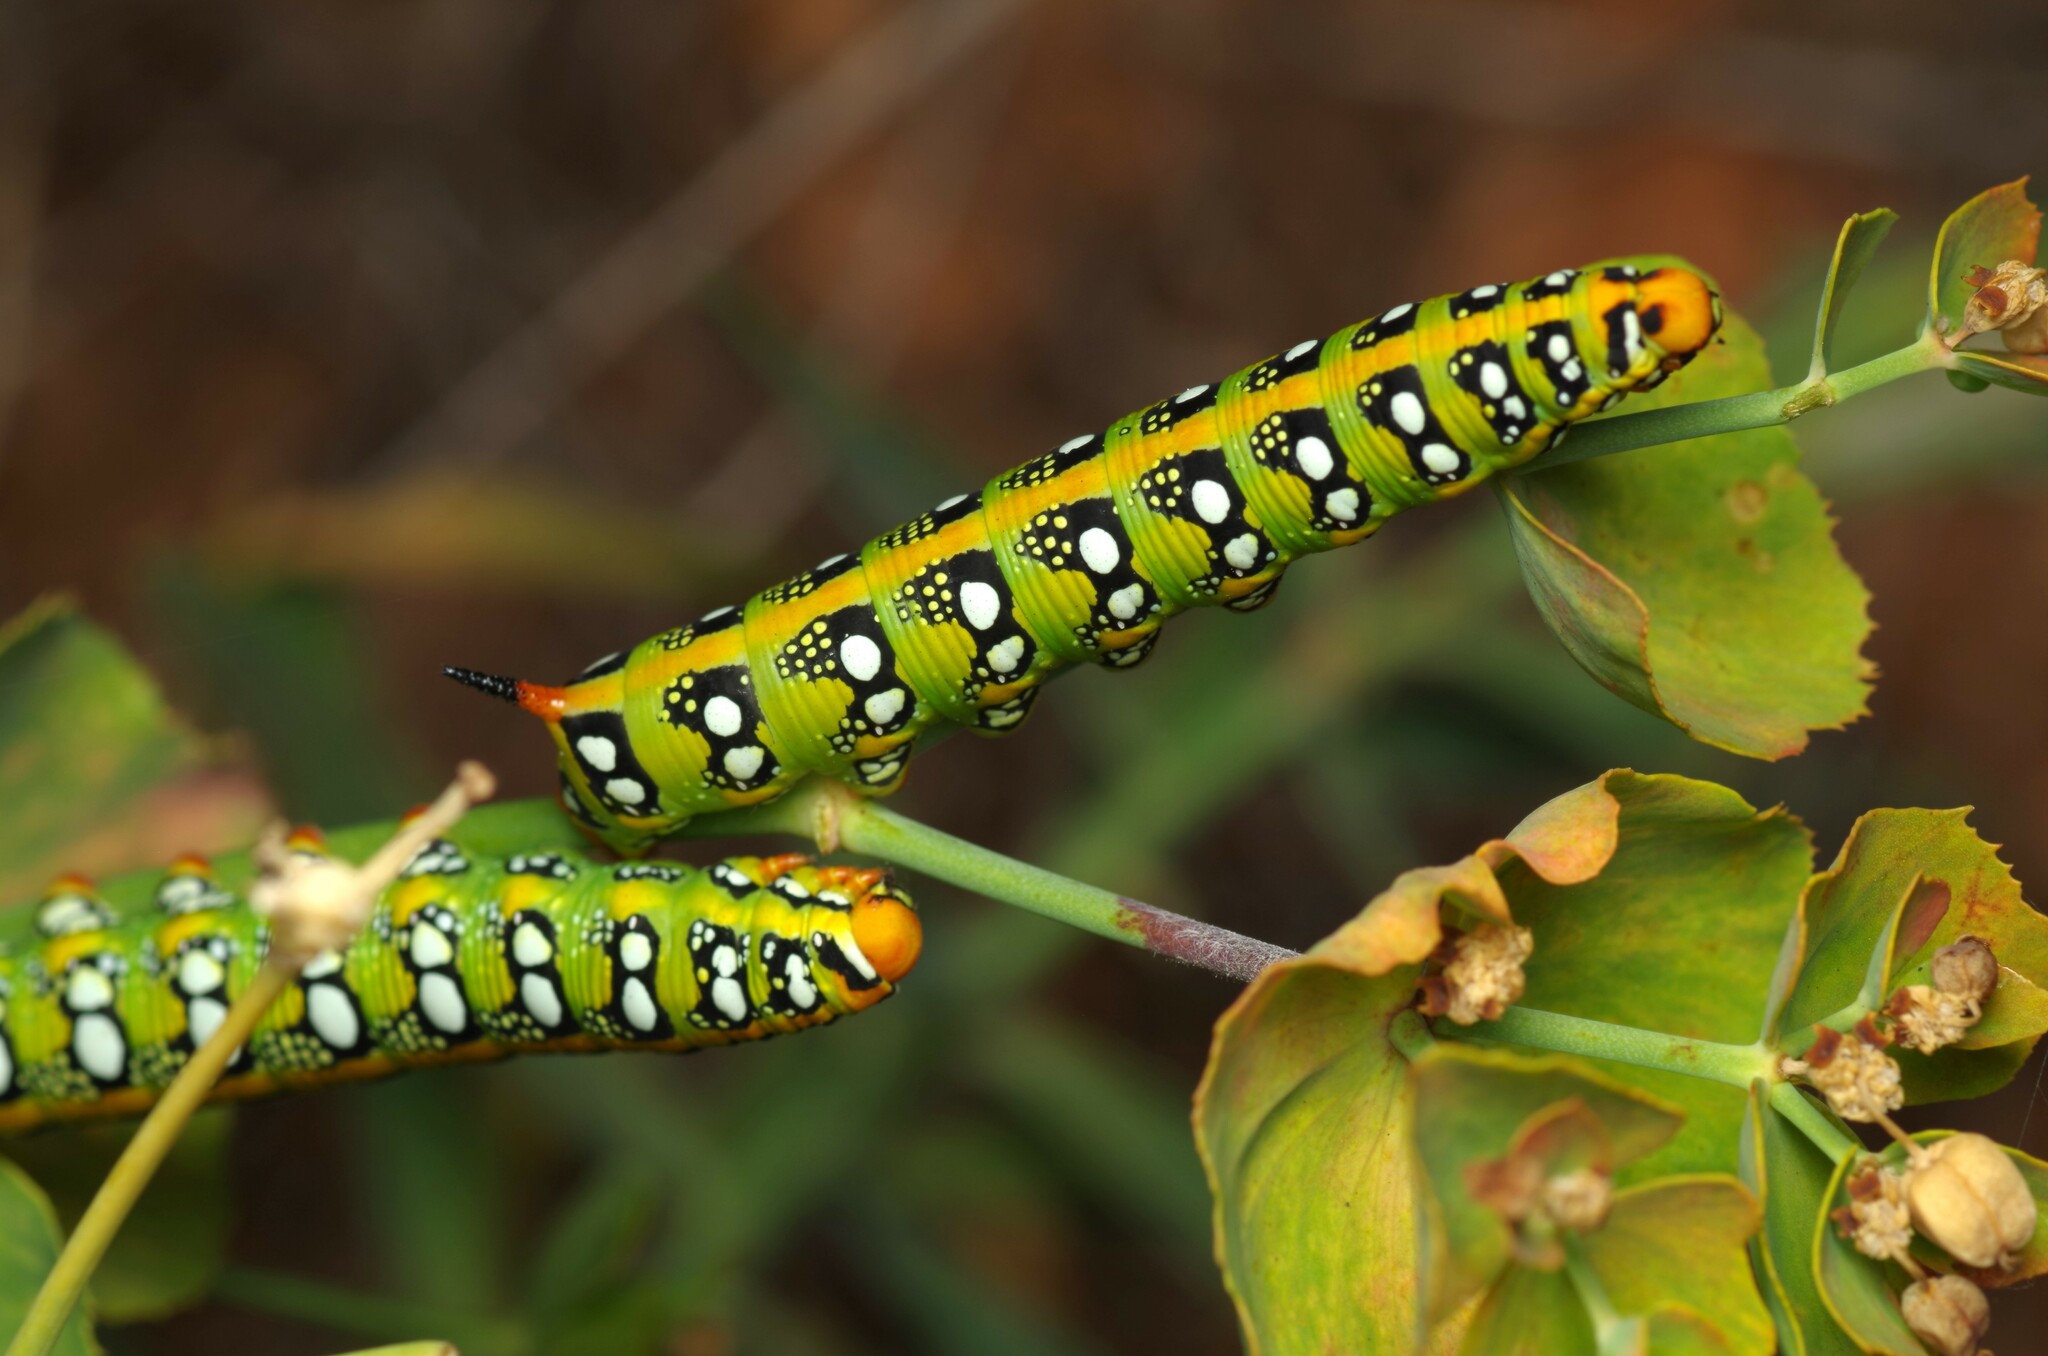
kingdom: Animalia
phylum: Arthropoda
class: Insecta
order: Lepidoptera
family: Sphingidae
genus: Hyles
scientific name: Hyles euphorbiae
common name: Spurge hawk-moth
